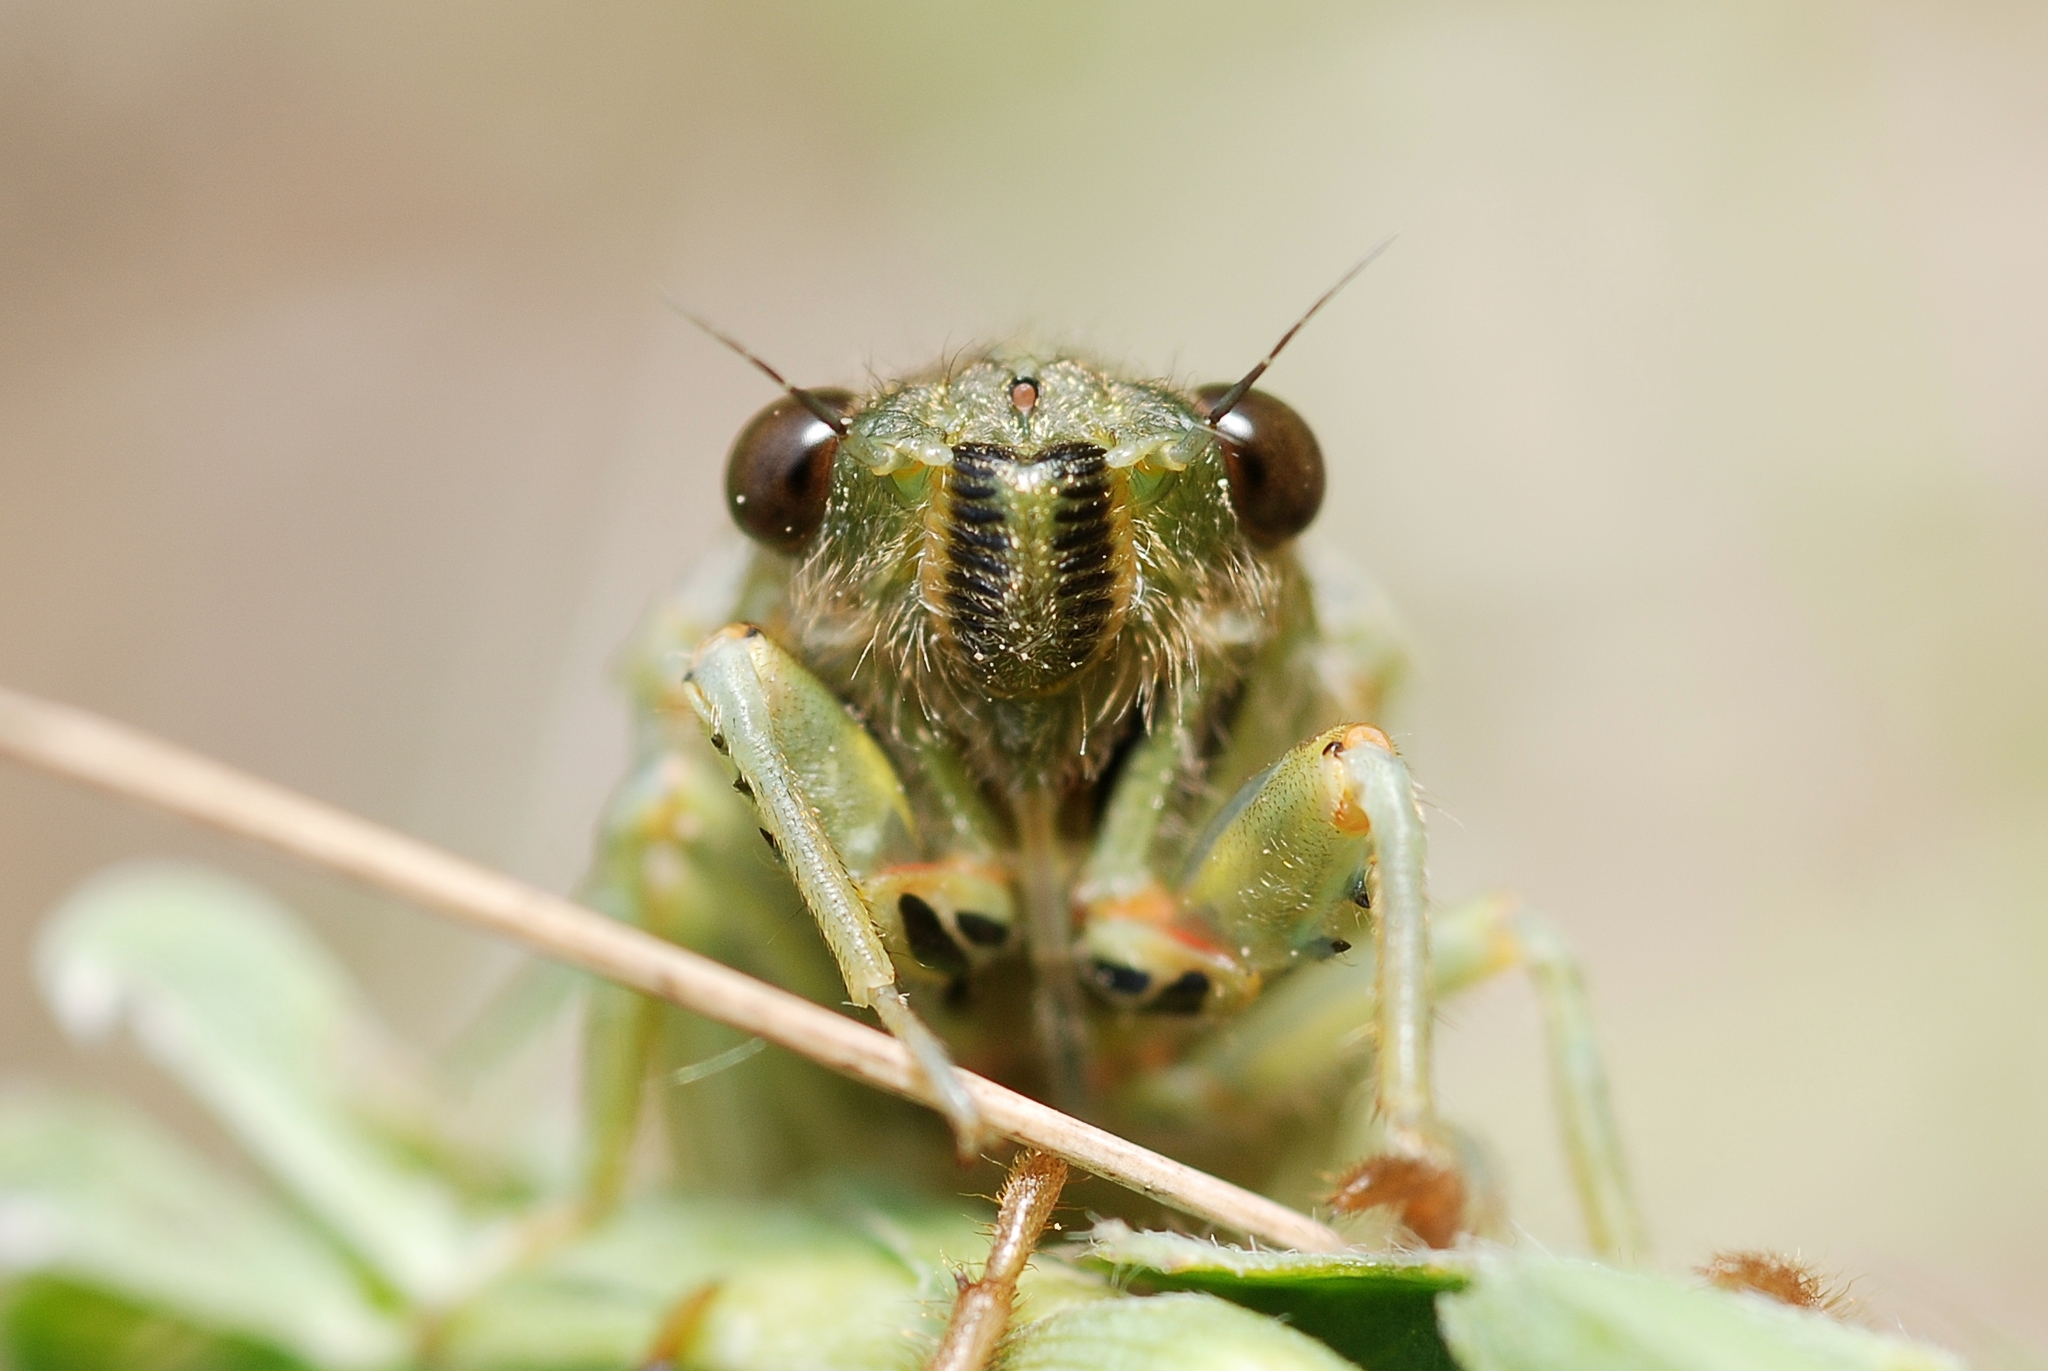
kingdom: Animalia
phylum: Arthropoda
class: Insecta
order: Hemiptera
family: Cicadidae
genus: Cicadetta
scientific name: Cicadetta
